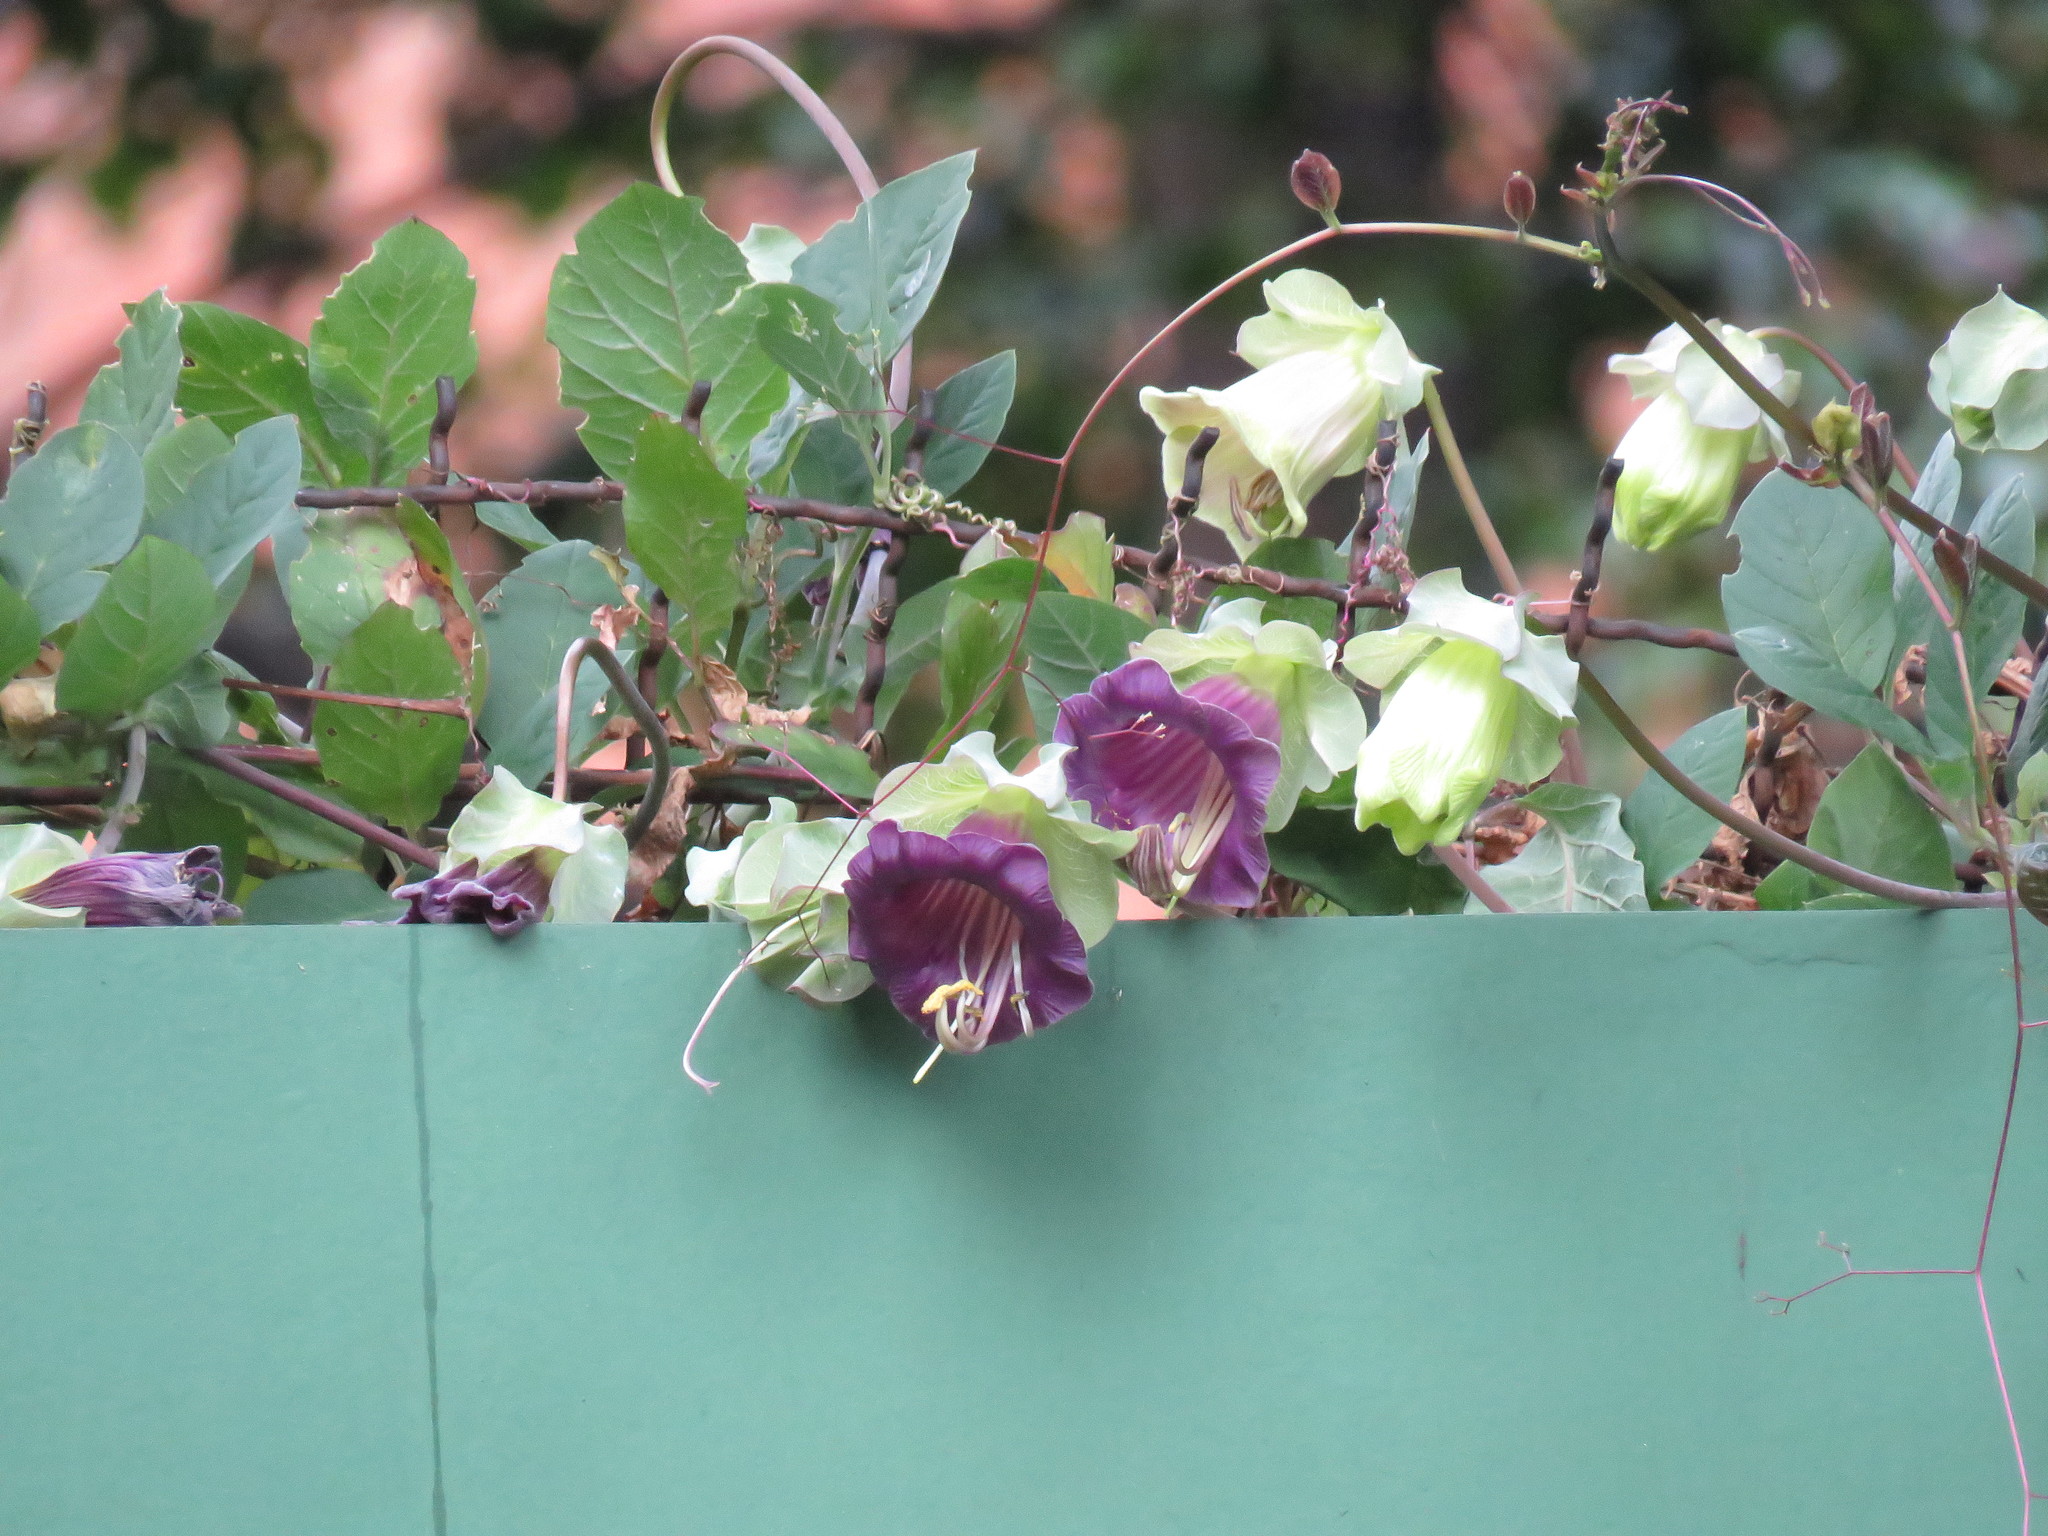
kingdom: Plantae
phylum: Tracheophyta
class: Magnoliopsida
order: Ericales
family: Polemoniaceae
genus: Cobaea
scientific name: Cobaea scandens
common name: Cup-and-saucer-vine
